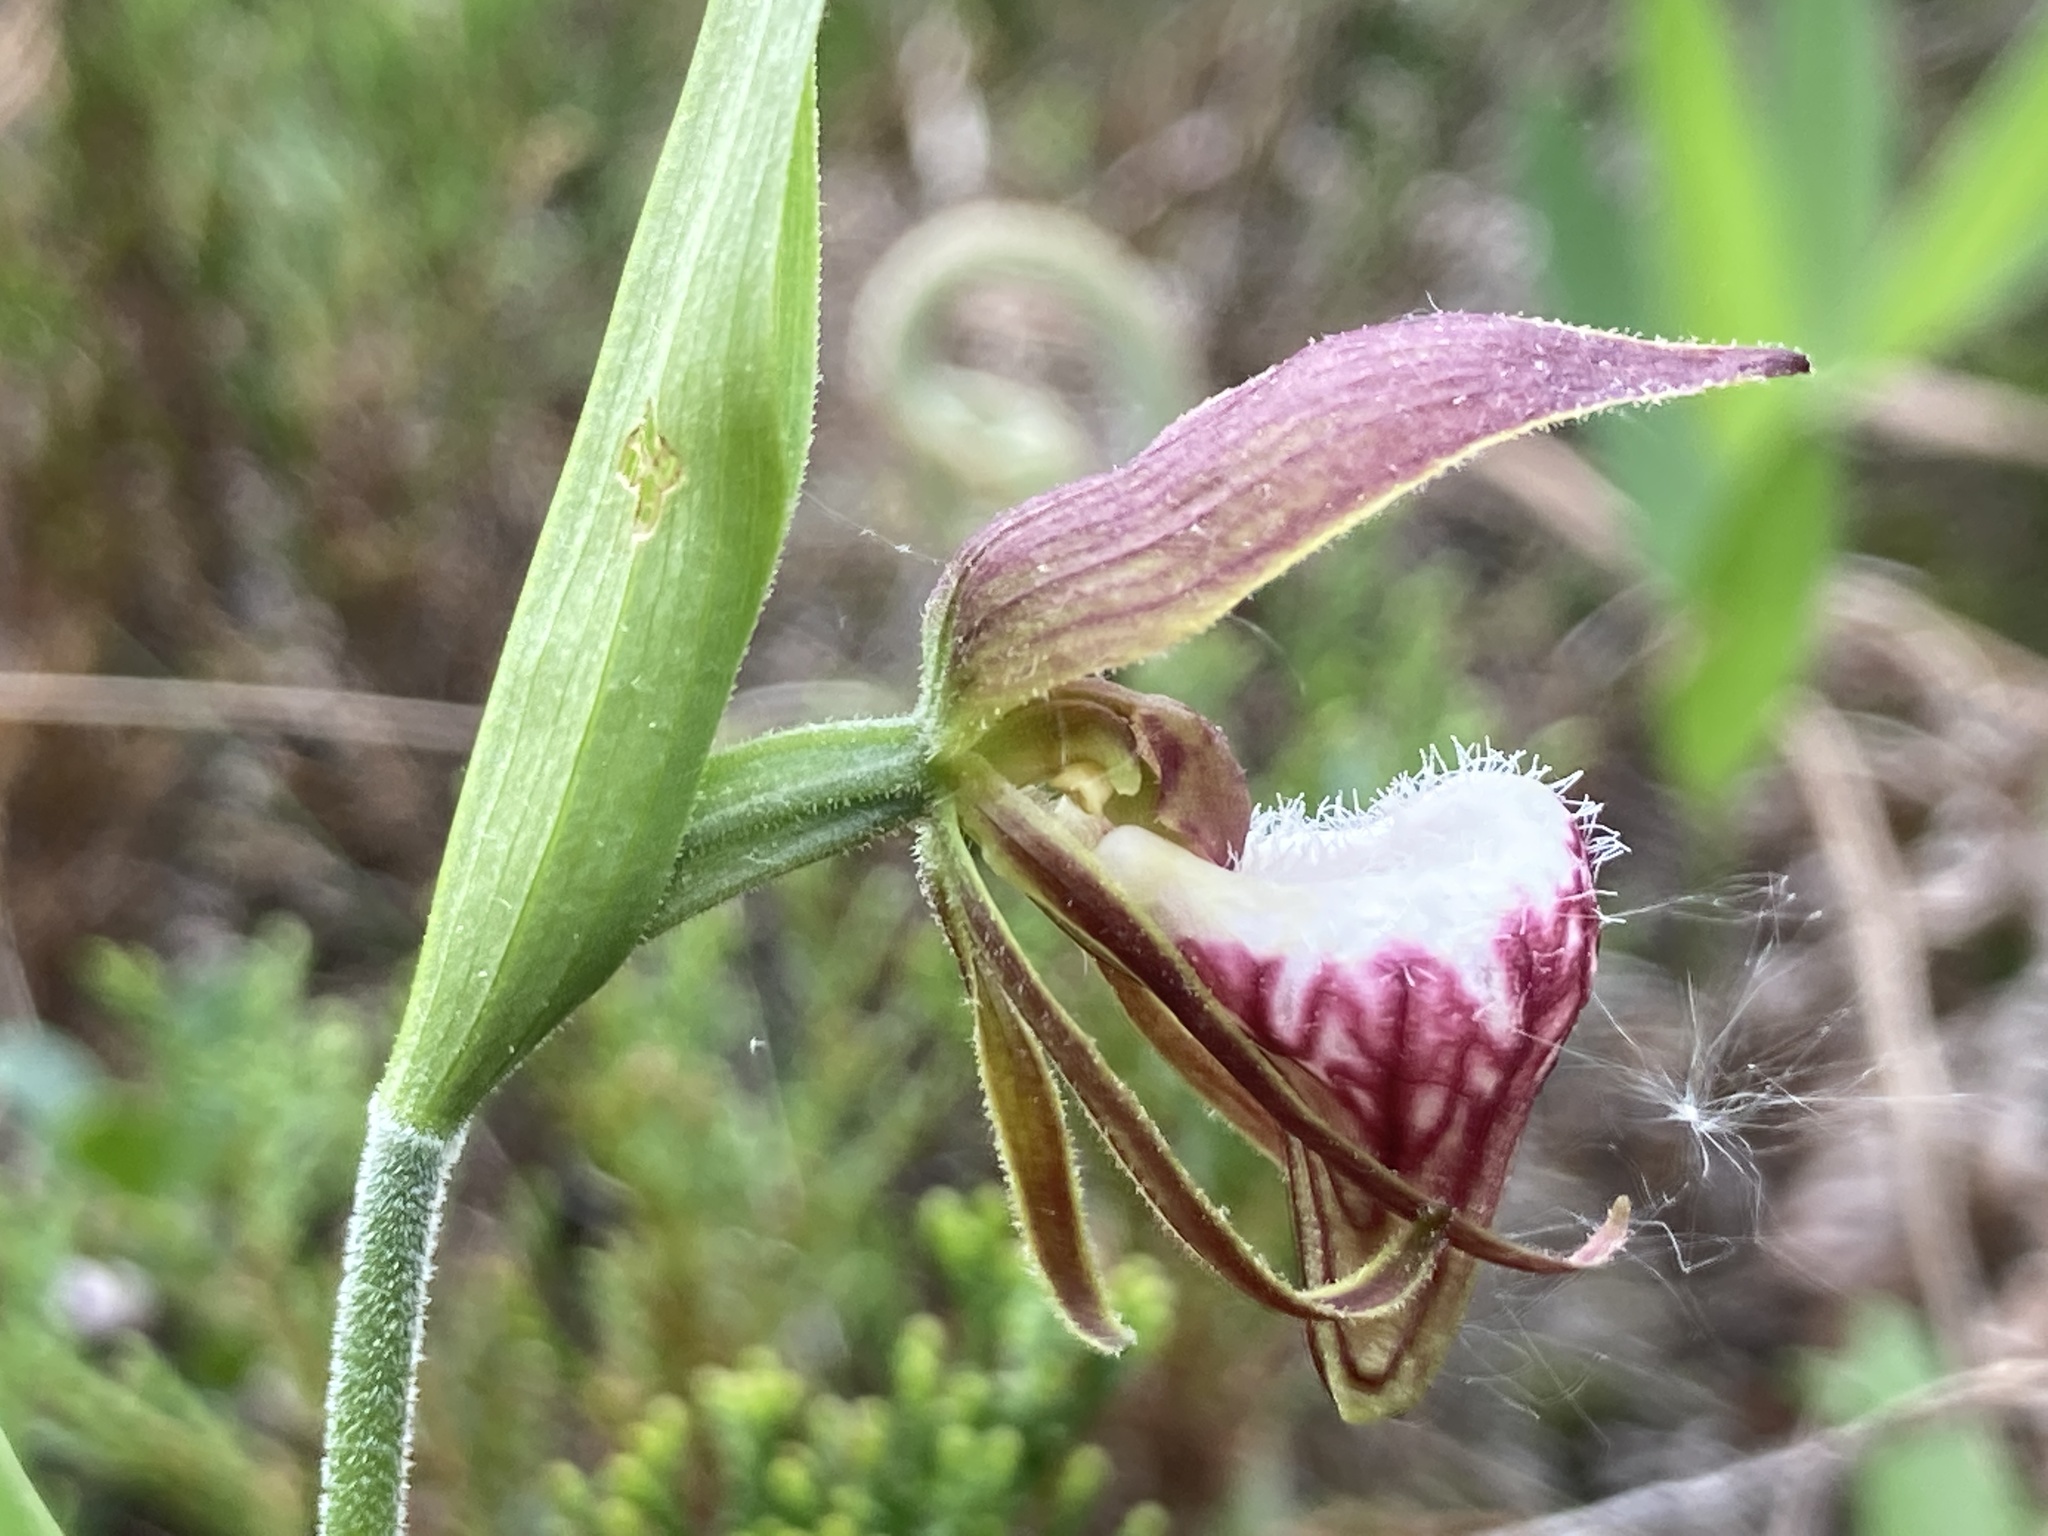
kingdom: Plantae
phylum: Tracheophyta
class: Liliopsida
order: Asparagales
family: Orchidaceae
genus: Cypripedium
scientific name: Cypripedium arietinum
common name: Ram's-head
